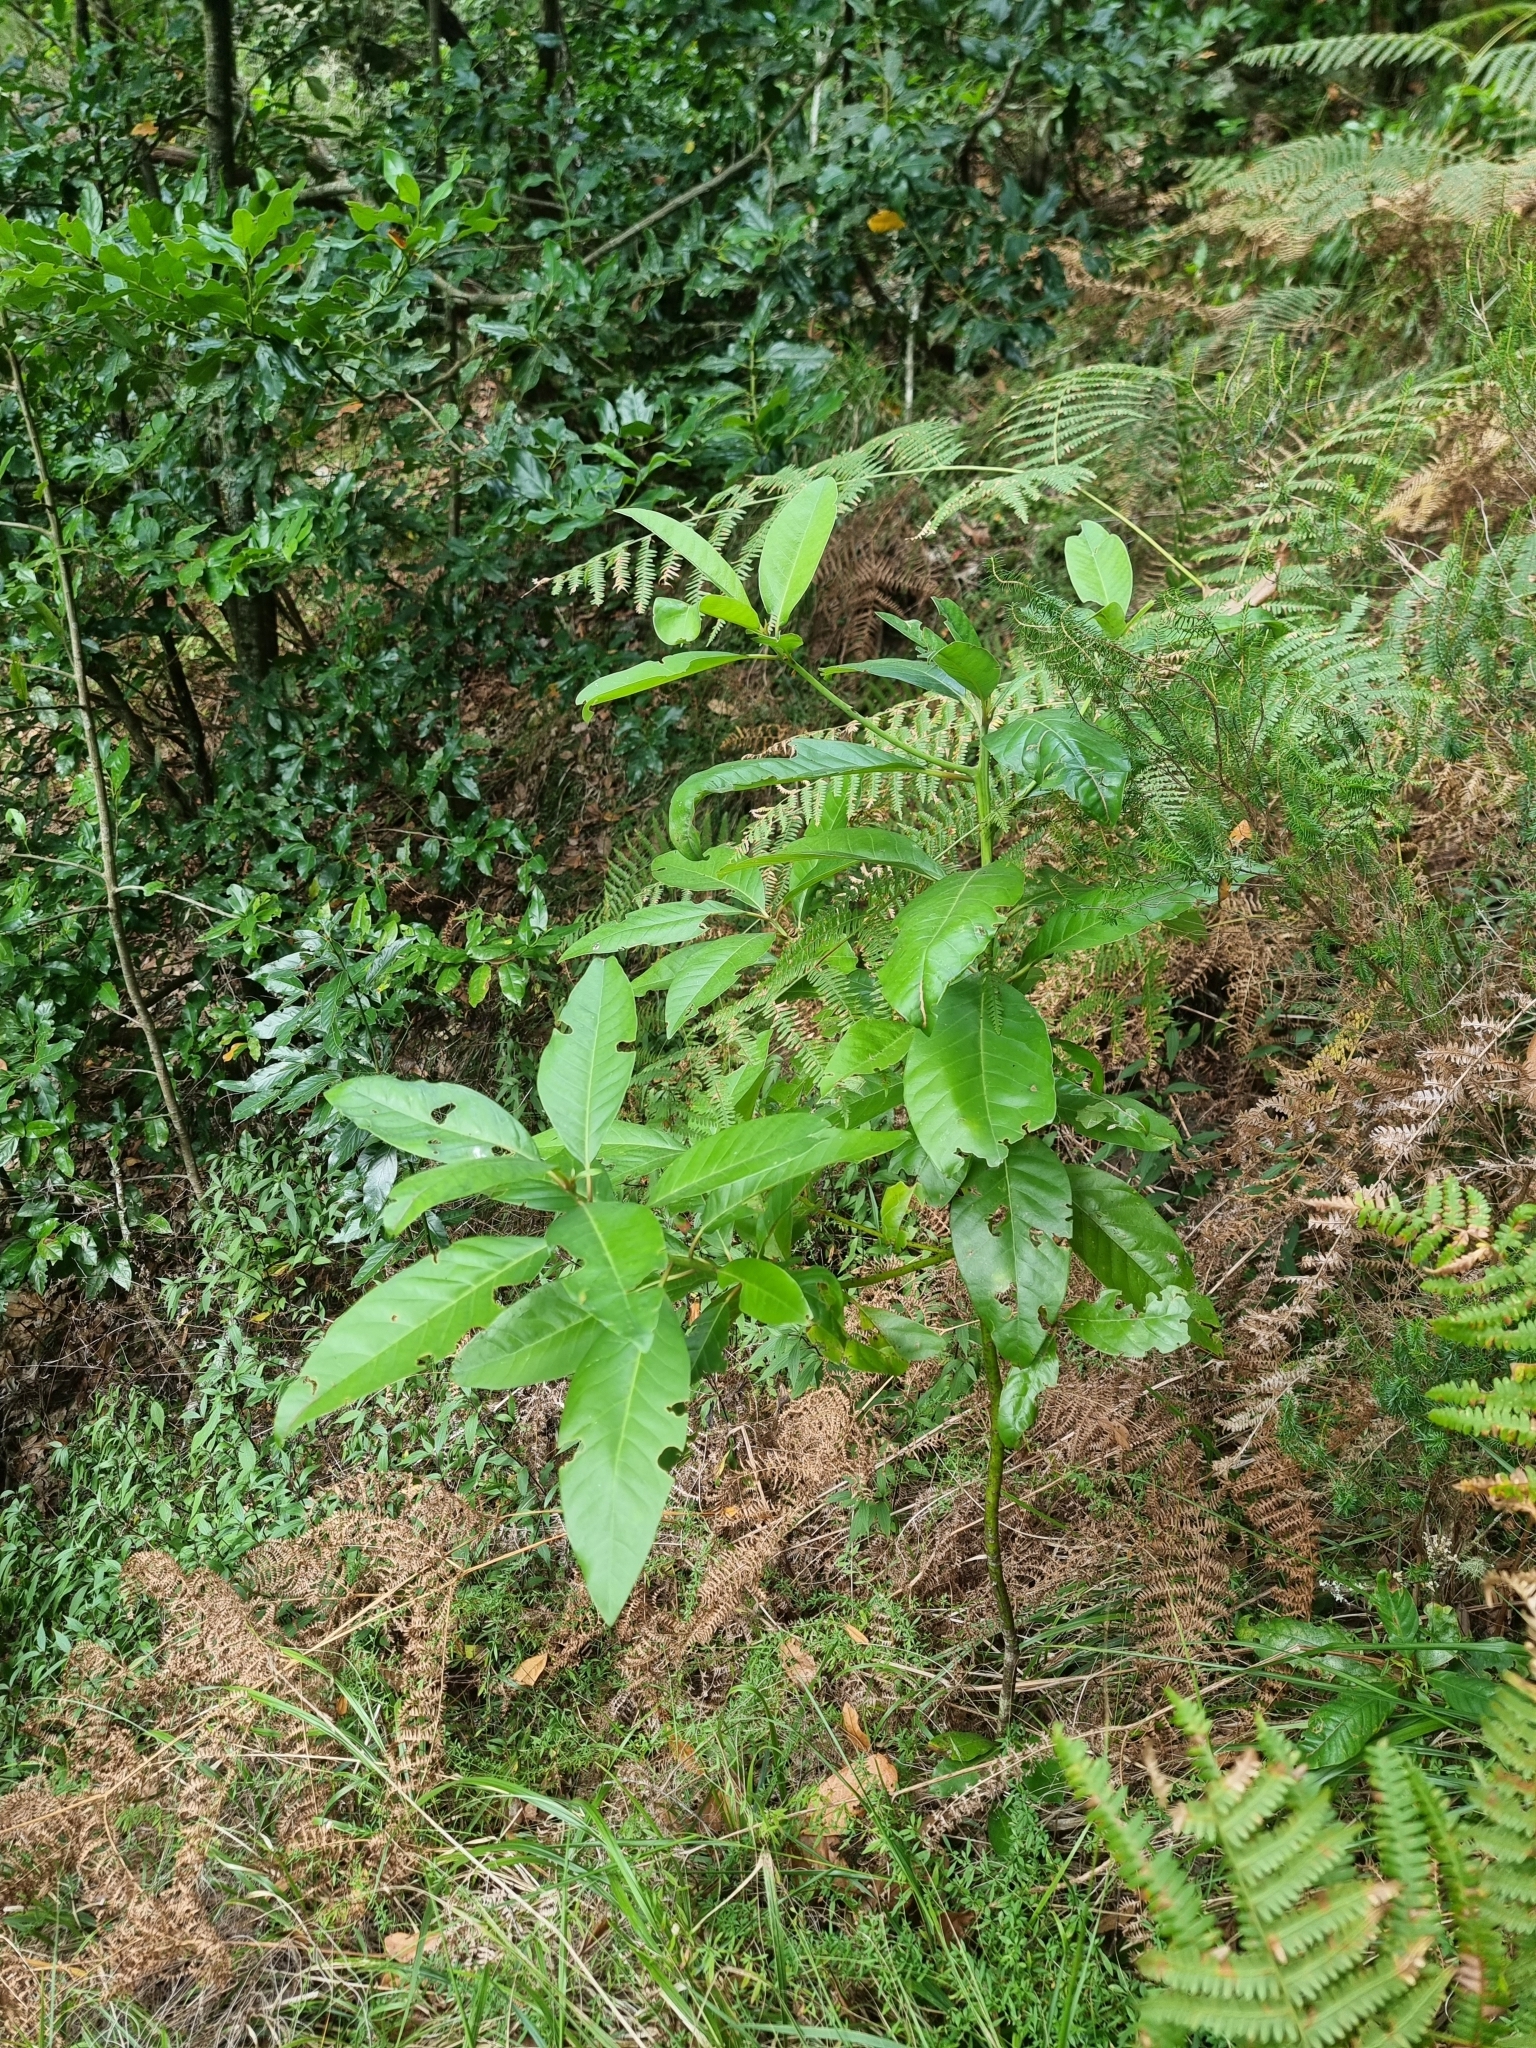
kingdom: Plantae
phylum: Tracheophyta
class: Magnoliopsida
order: Laurales
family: Lauraceae
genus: Persea
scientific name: Persea indica
